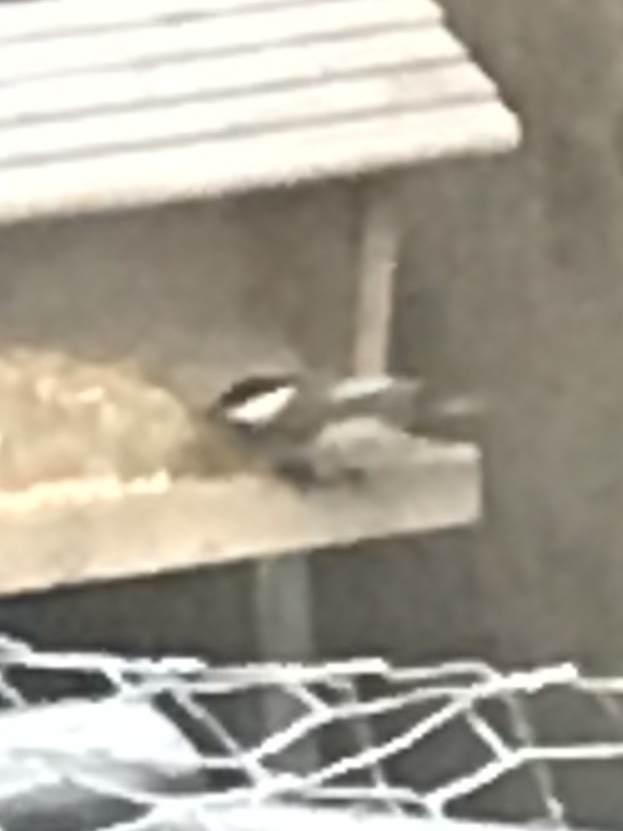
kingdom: Animalia
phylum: Chordata
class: Aves
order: Passeriformes
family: Paridae
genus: Poecile
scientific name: Poecile carolinensis
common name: Carolina chickadee
